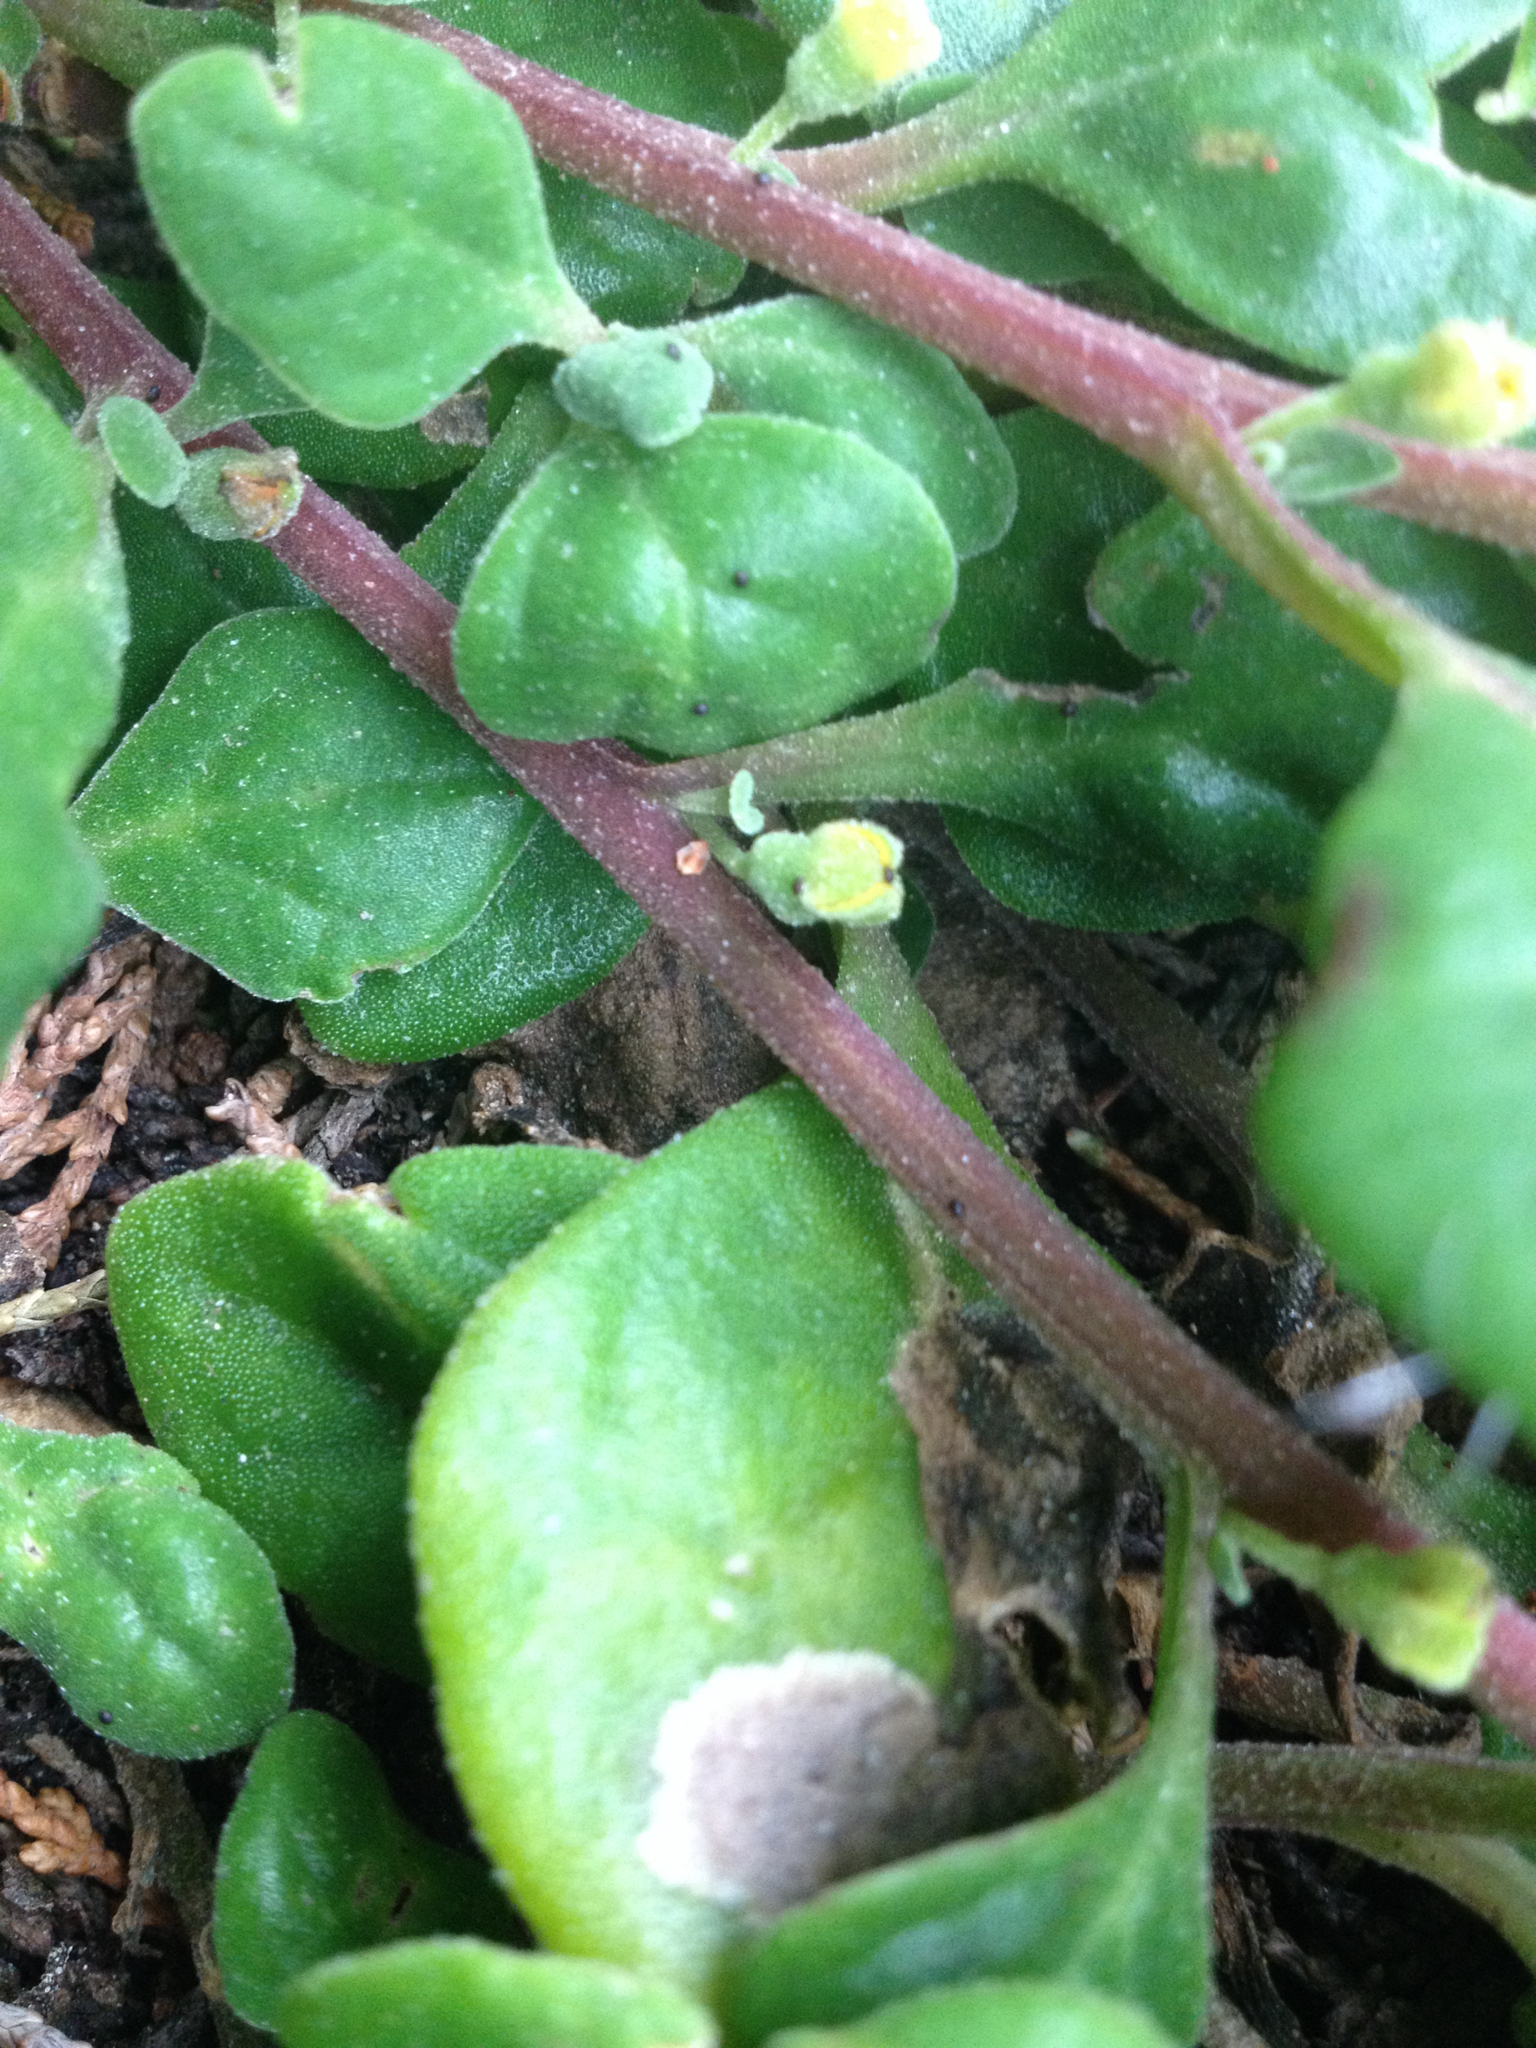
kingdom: Plantae
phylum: Tracheophyta
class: Magnoliopsida
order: Caryophyllales
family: Aizoaceae
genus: Tetragonia
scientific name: Tetragonia implexicoma
